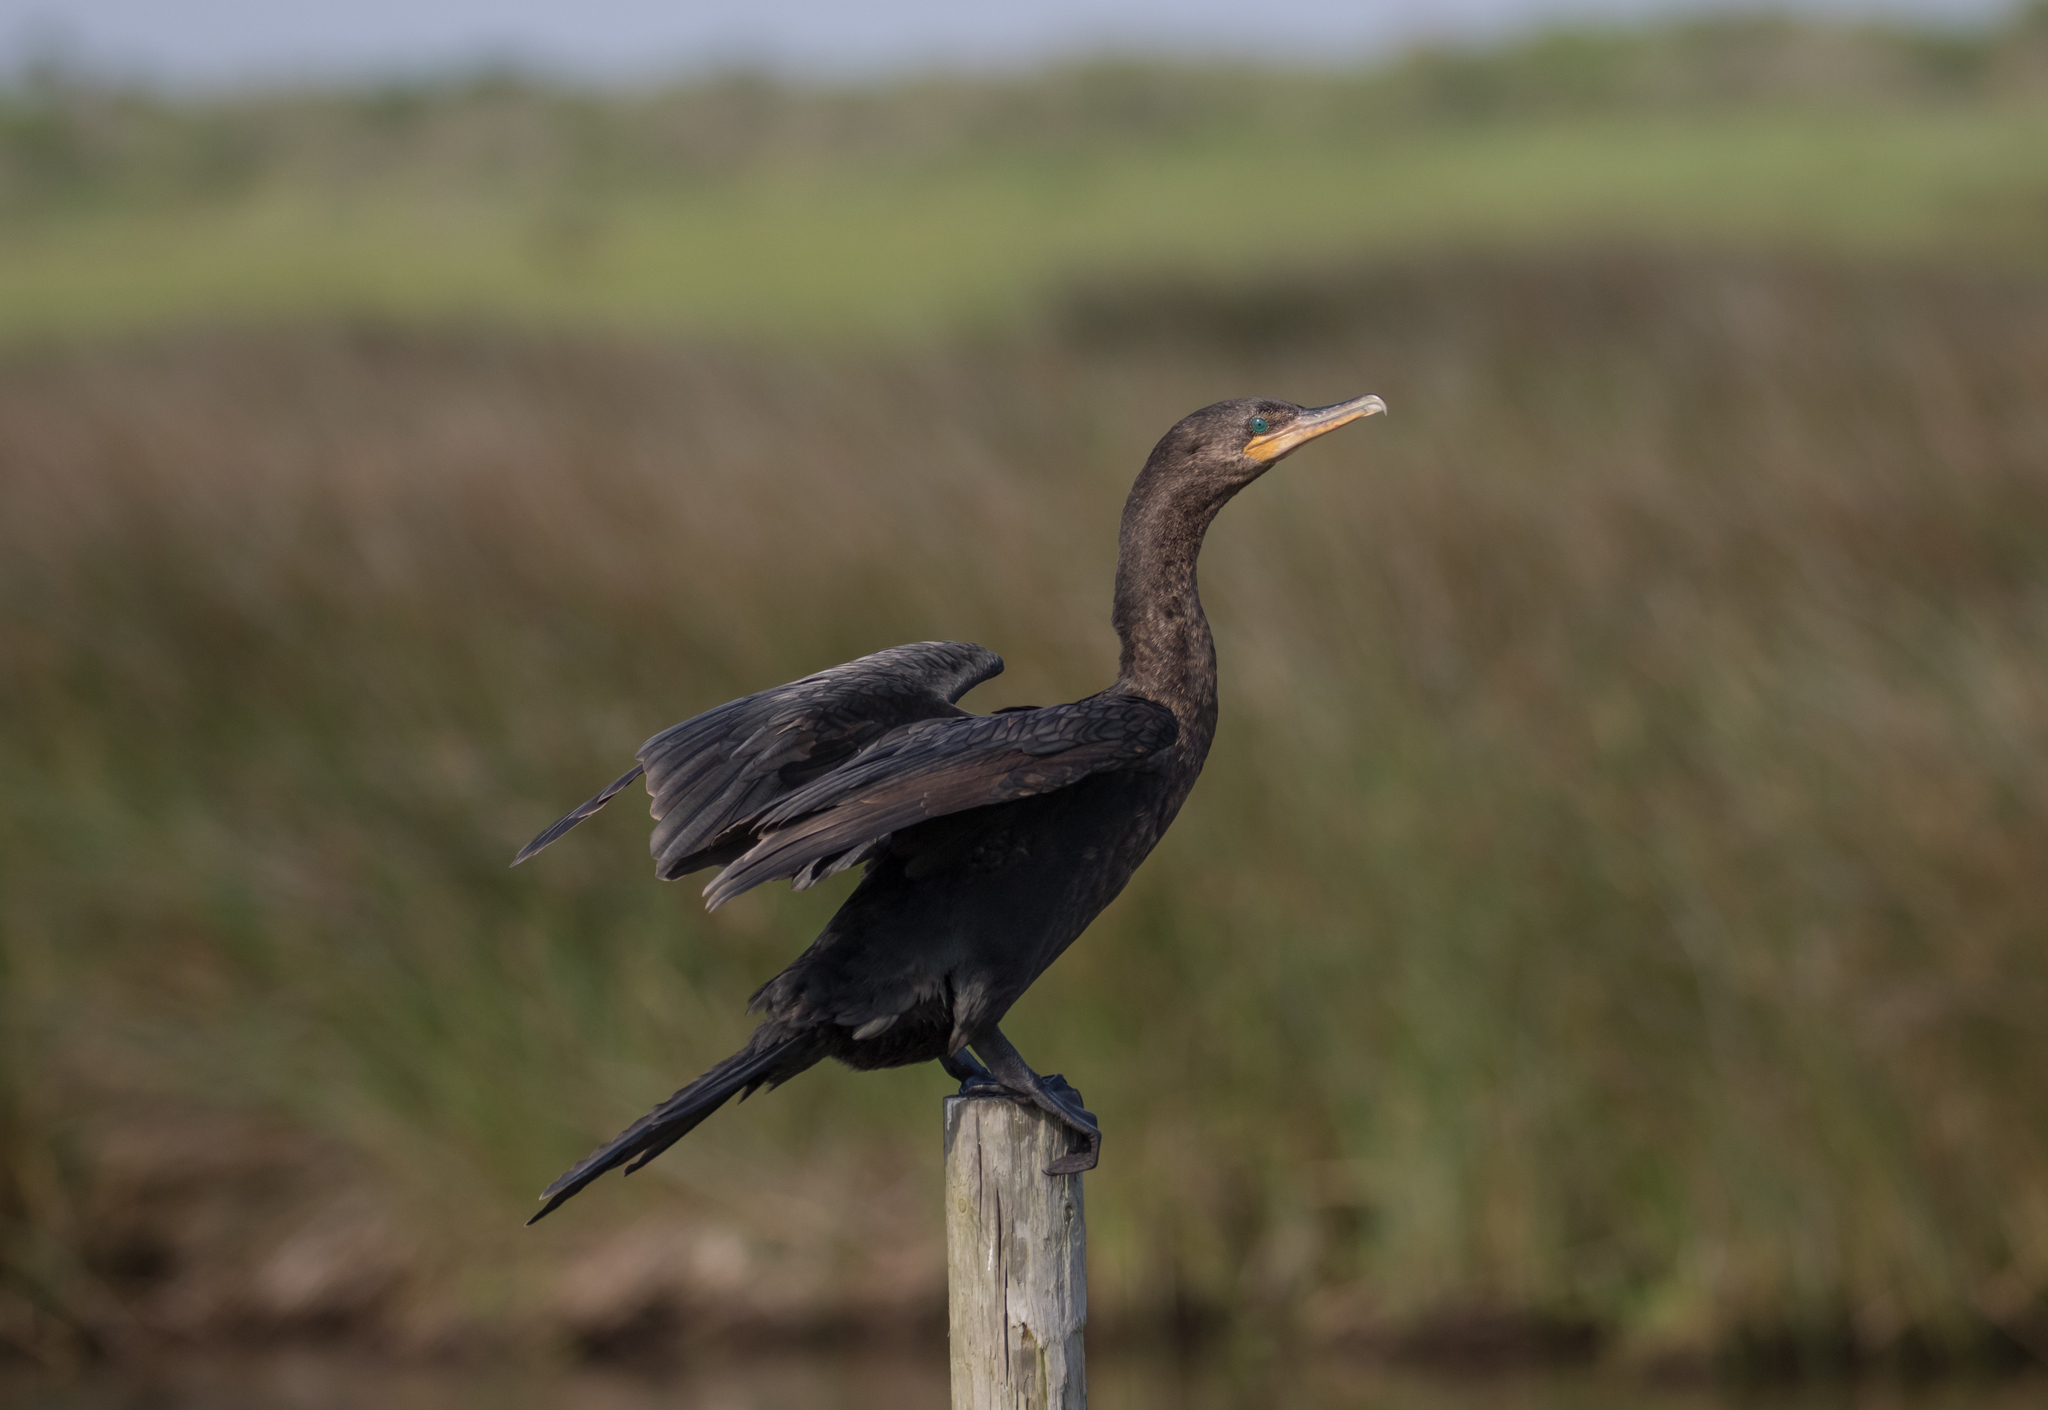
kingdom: Animalia
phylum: Chordata
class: Aves
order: Suliformes
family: Phalacrocoracidae
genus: Phalacrocorax
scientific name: Phalacrocorax brasilianus
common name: Neotropic cormorant
